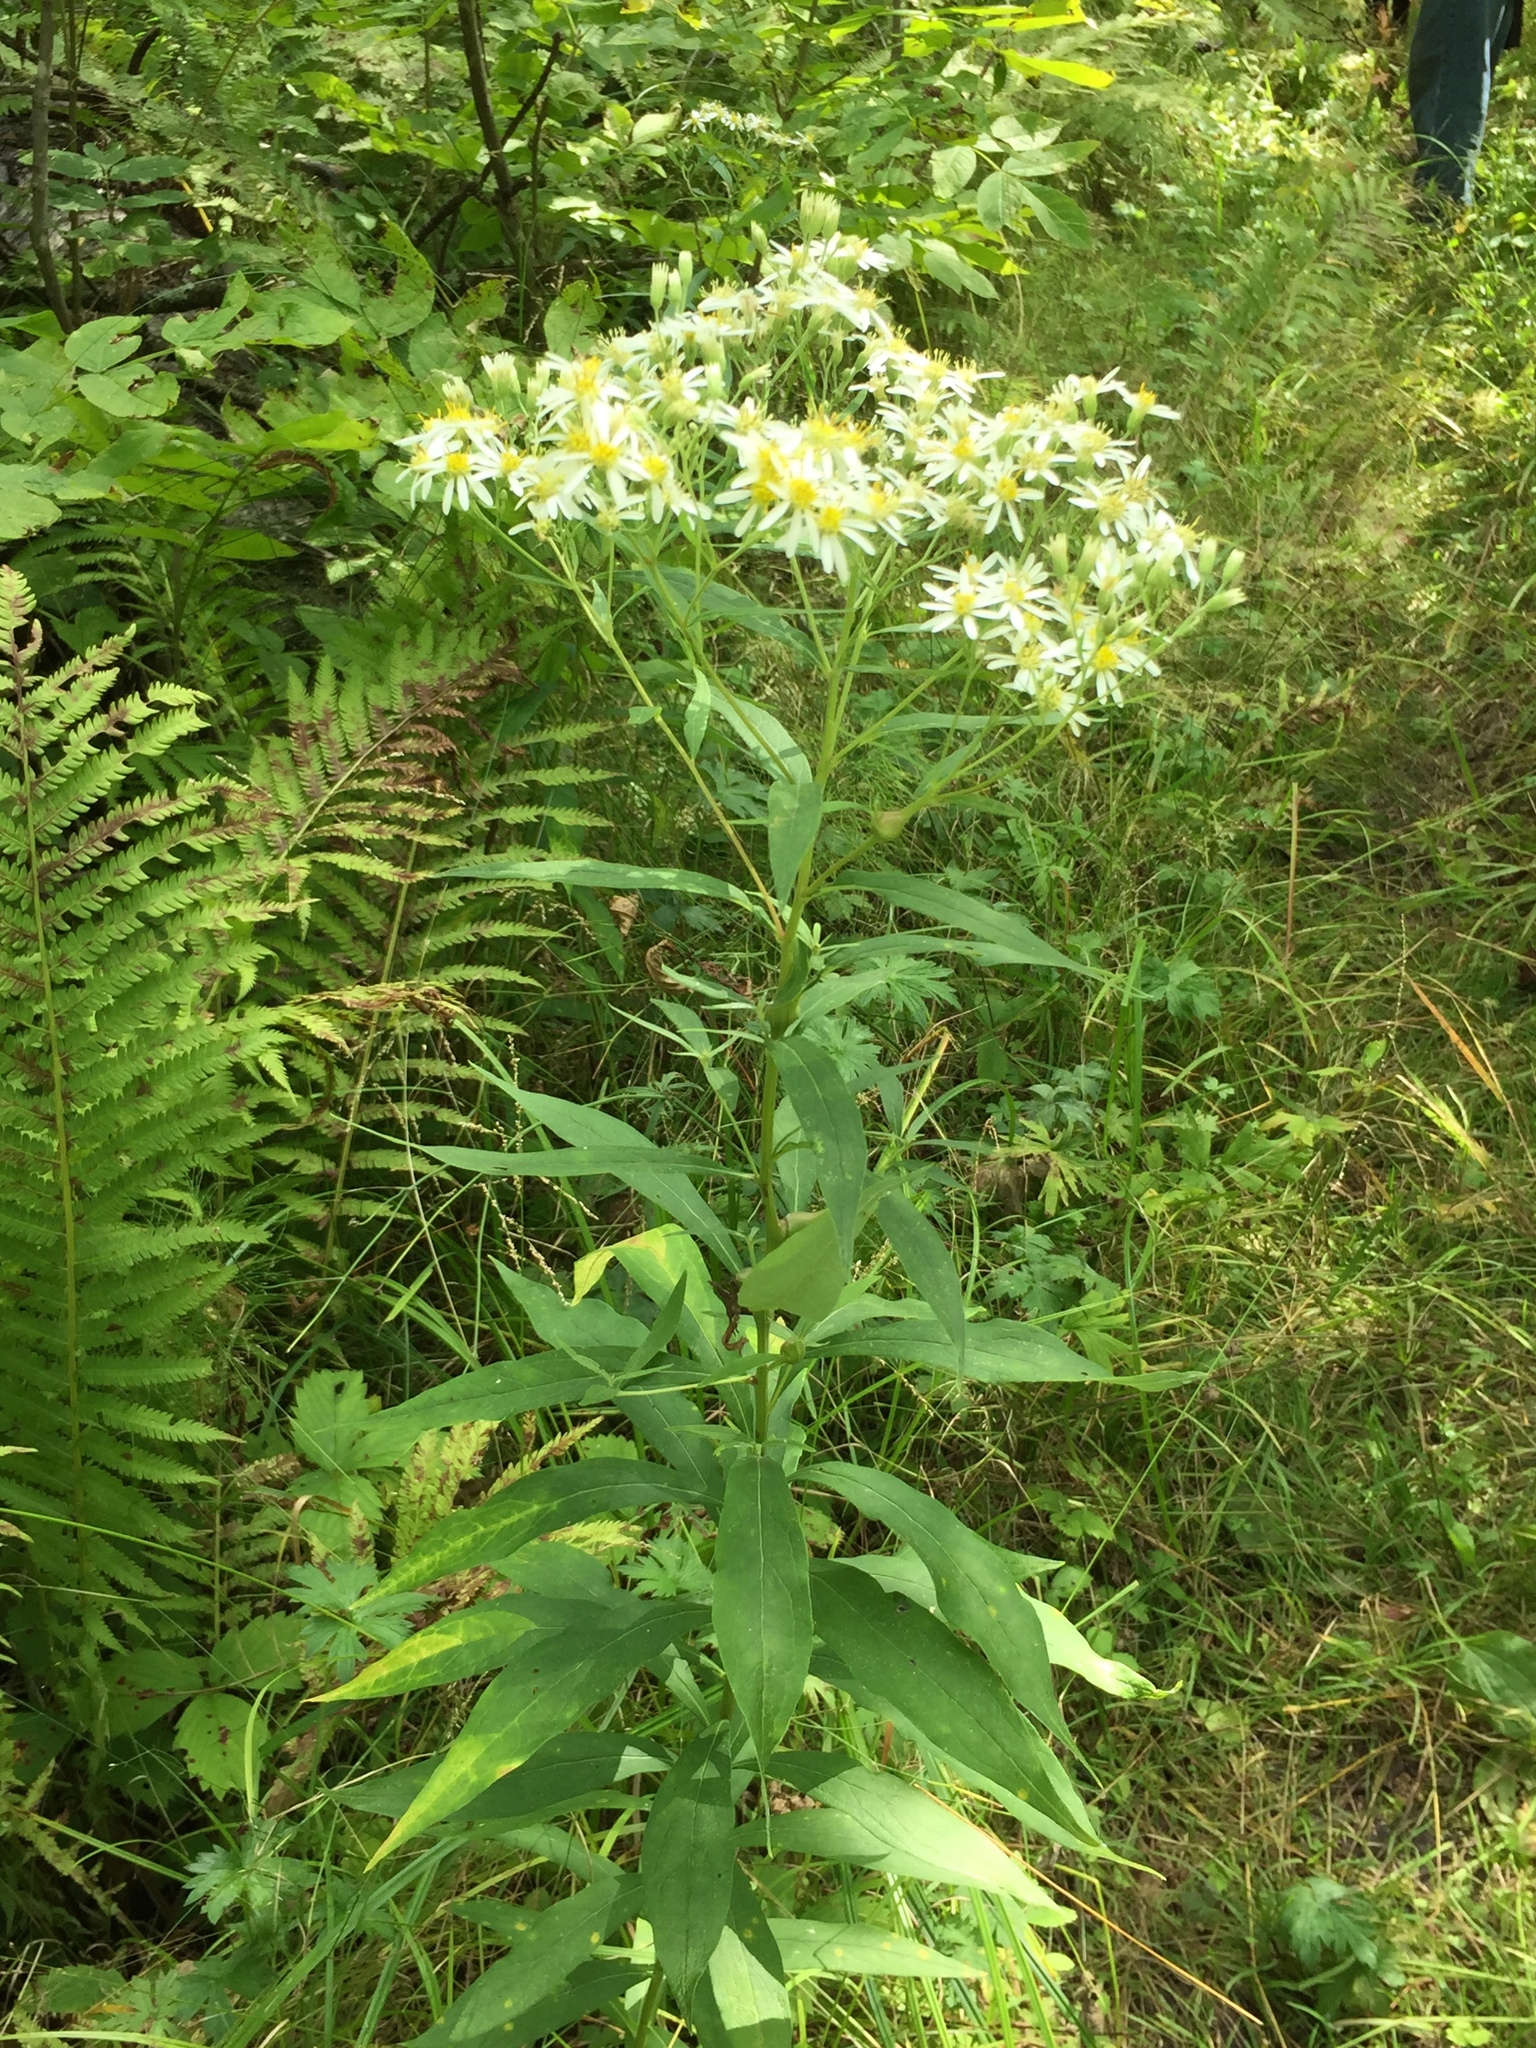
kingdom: Plantae
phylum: Tracheophyta
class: Magnoliopsida
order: Asterales
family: Asteraceae
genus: Doellingeria
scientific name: Doellingeria umbellata
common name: Flat-top white aster
